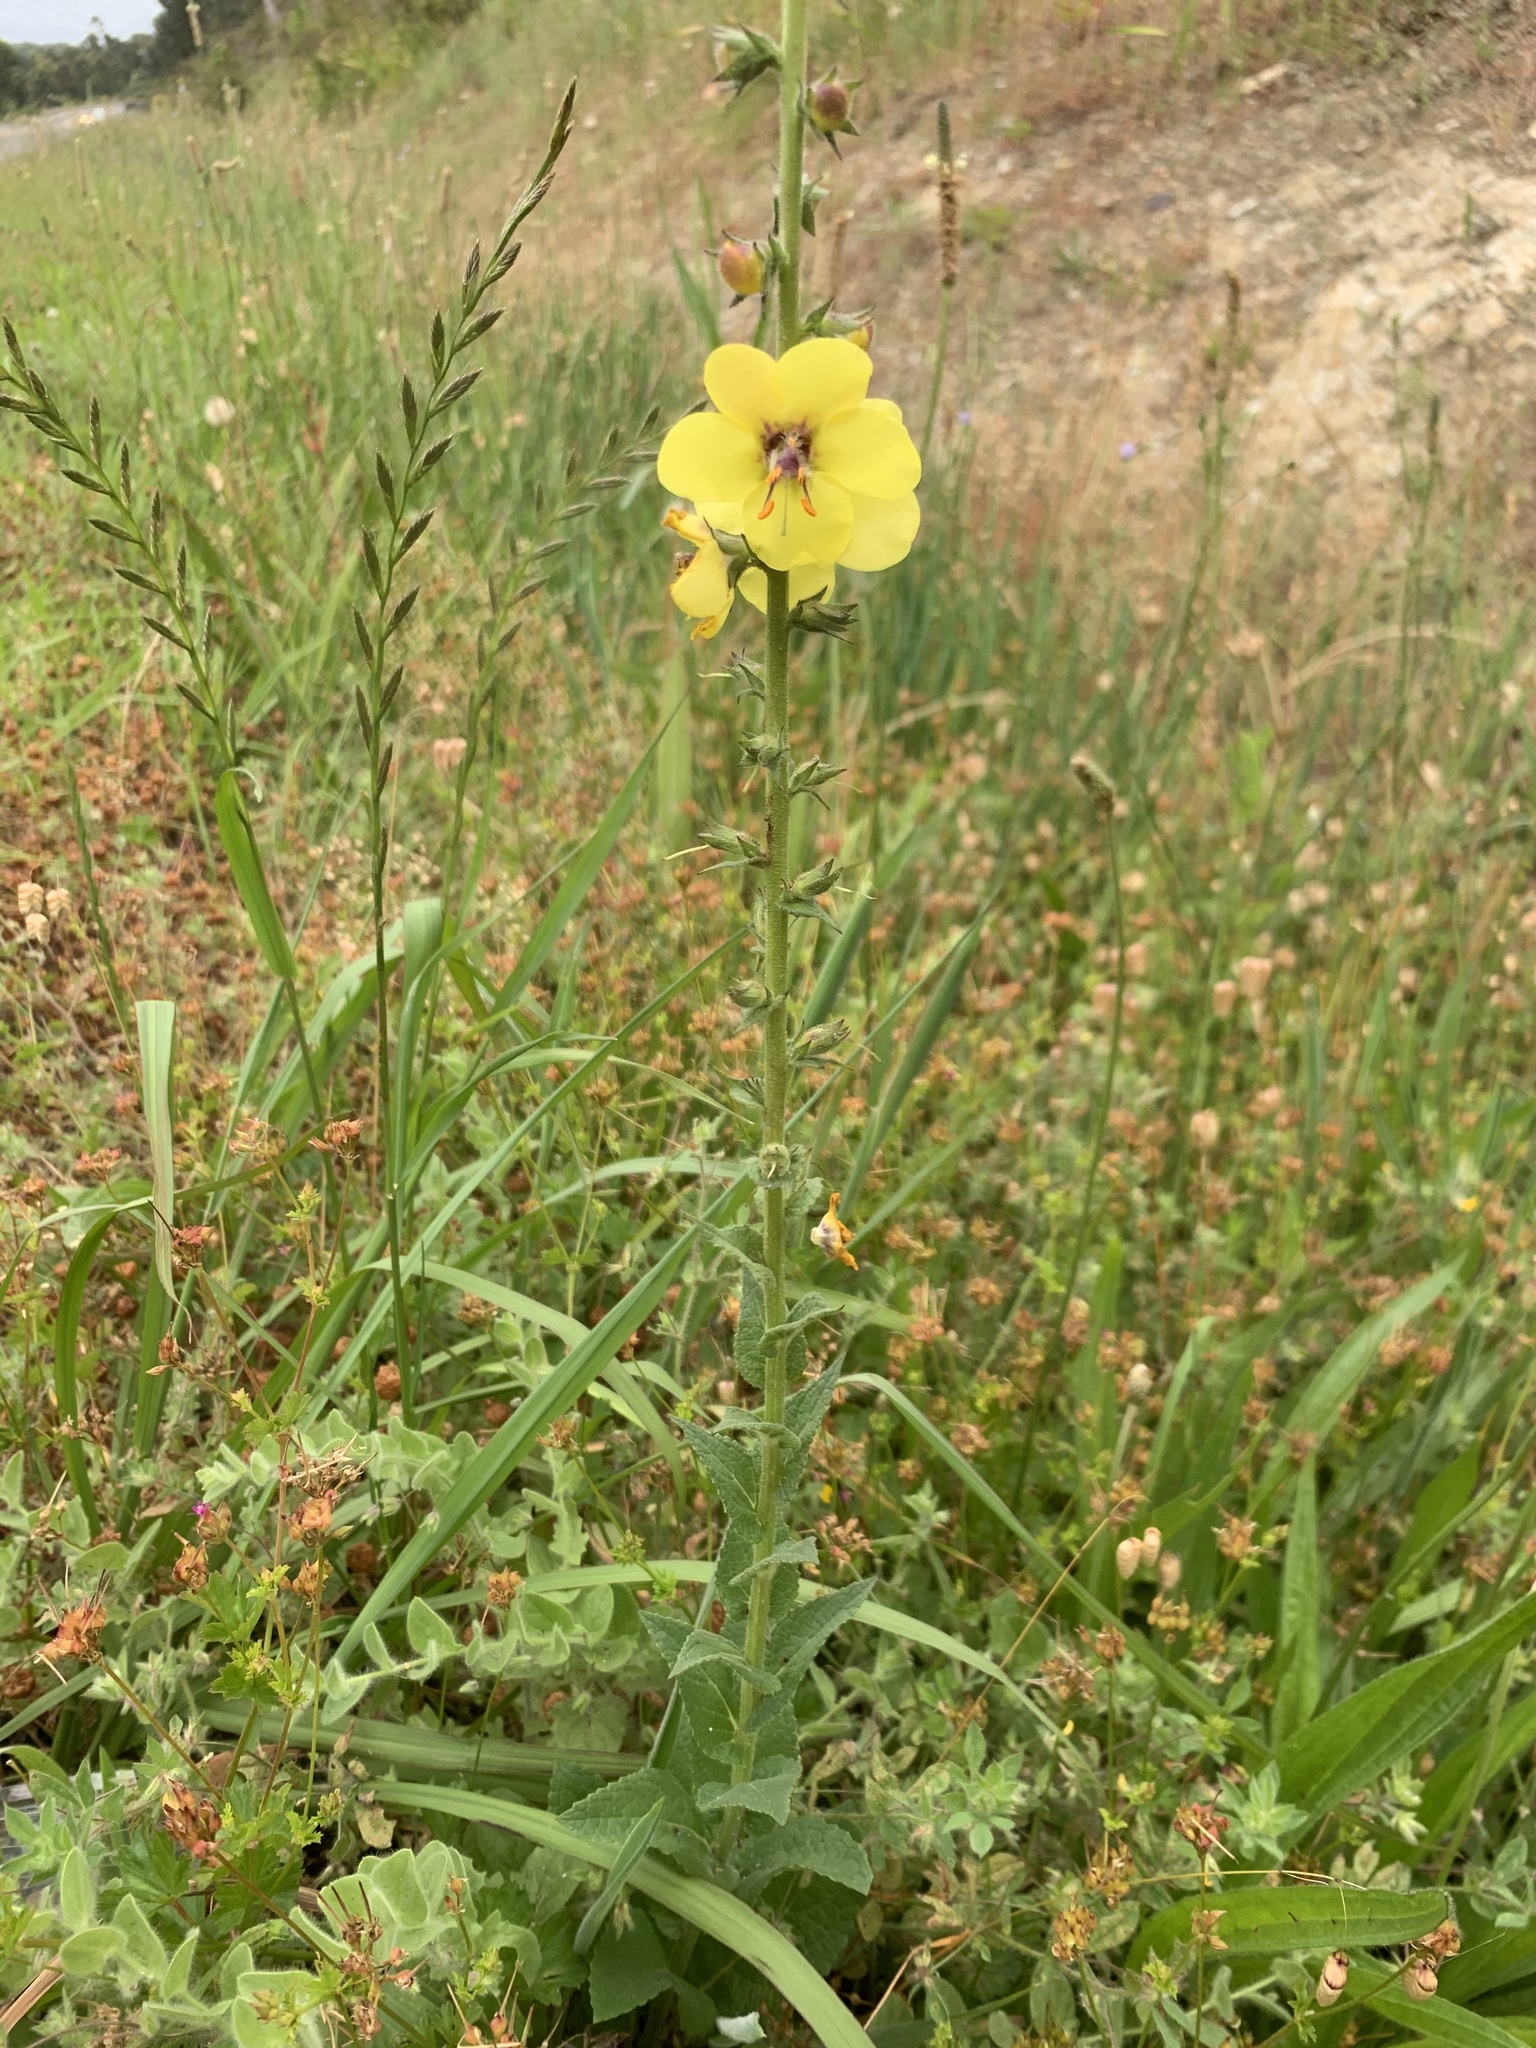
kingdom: Plantae
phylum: Tracheophyta
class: Magnoliopsida
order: Lamiales
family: Scrophulariaceae
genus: Verbascum
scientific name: Verbascum virgatum
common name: Twiggy mullein
